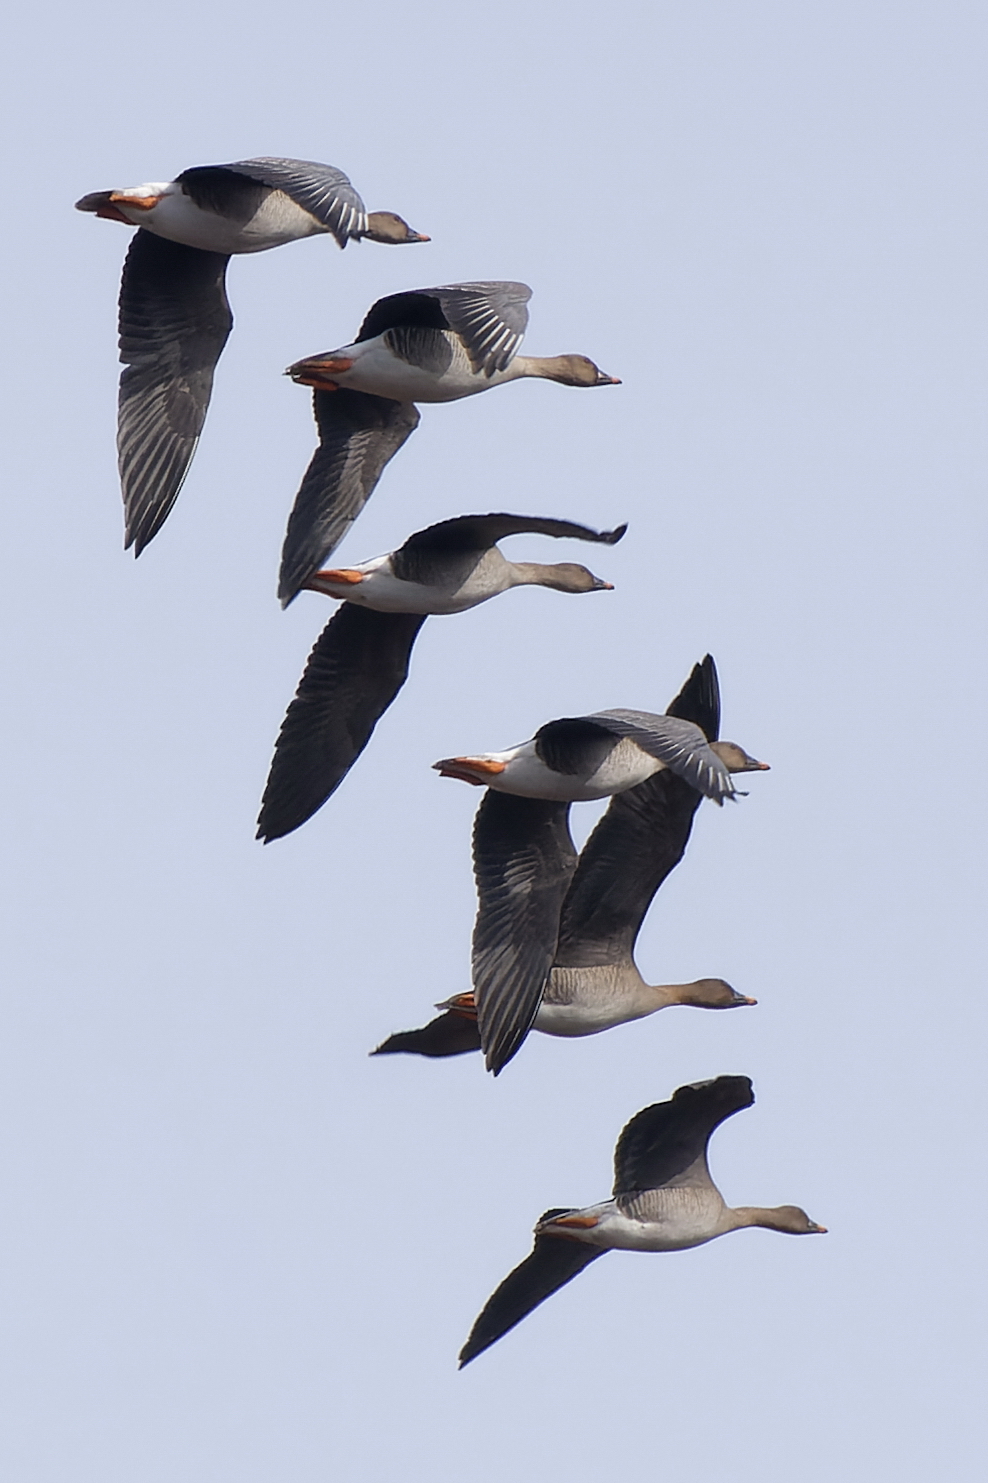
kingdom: Animalia
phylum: Chordata
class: Aves
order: Anseriformes
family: Anatidae
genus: Anser
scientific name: Anser fabalis
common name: Bean goose
